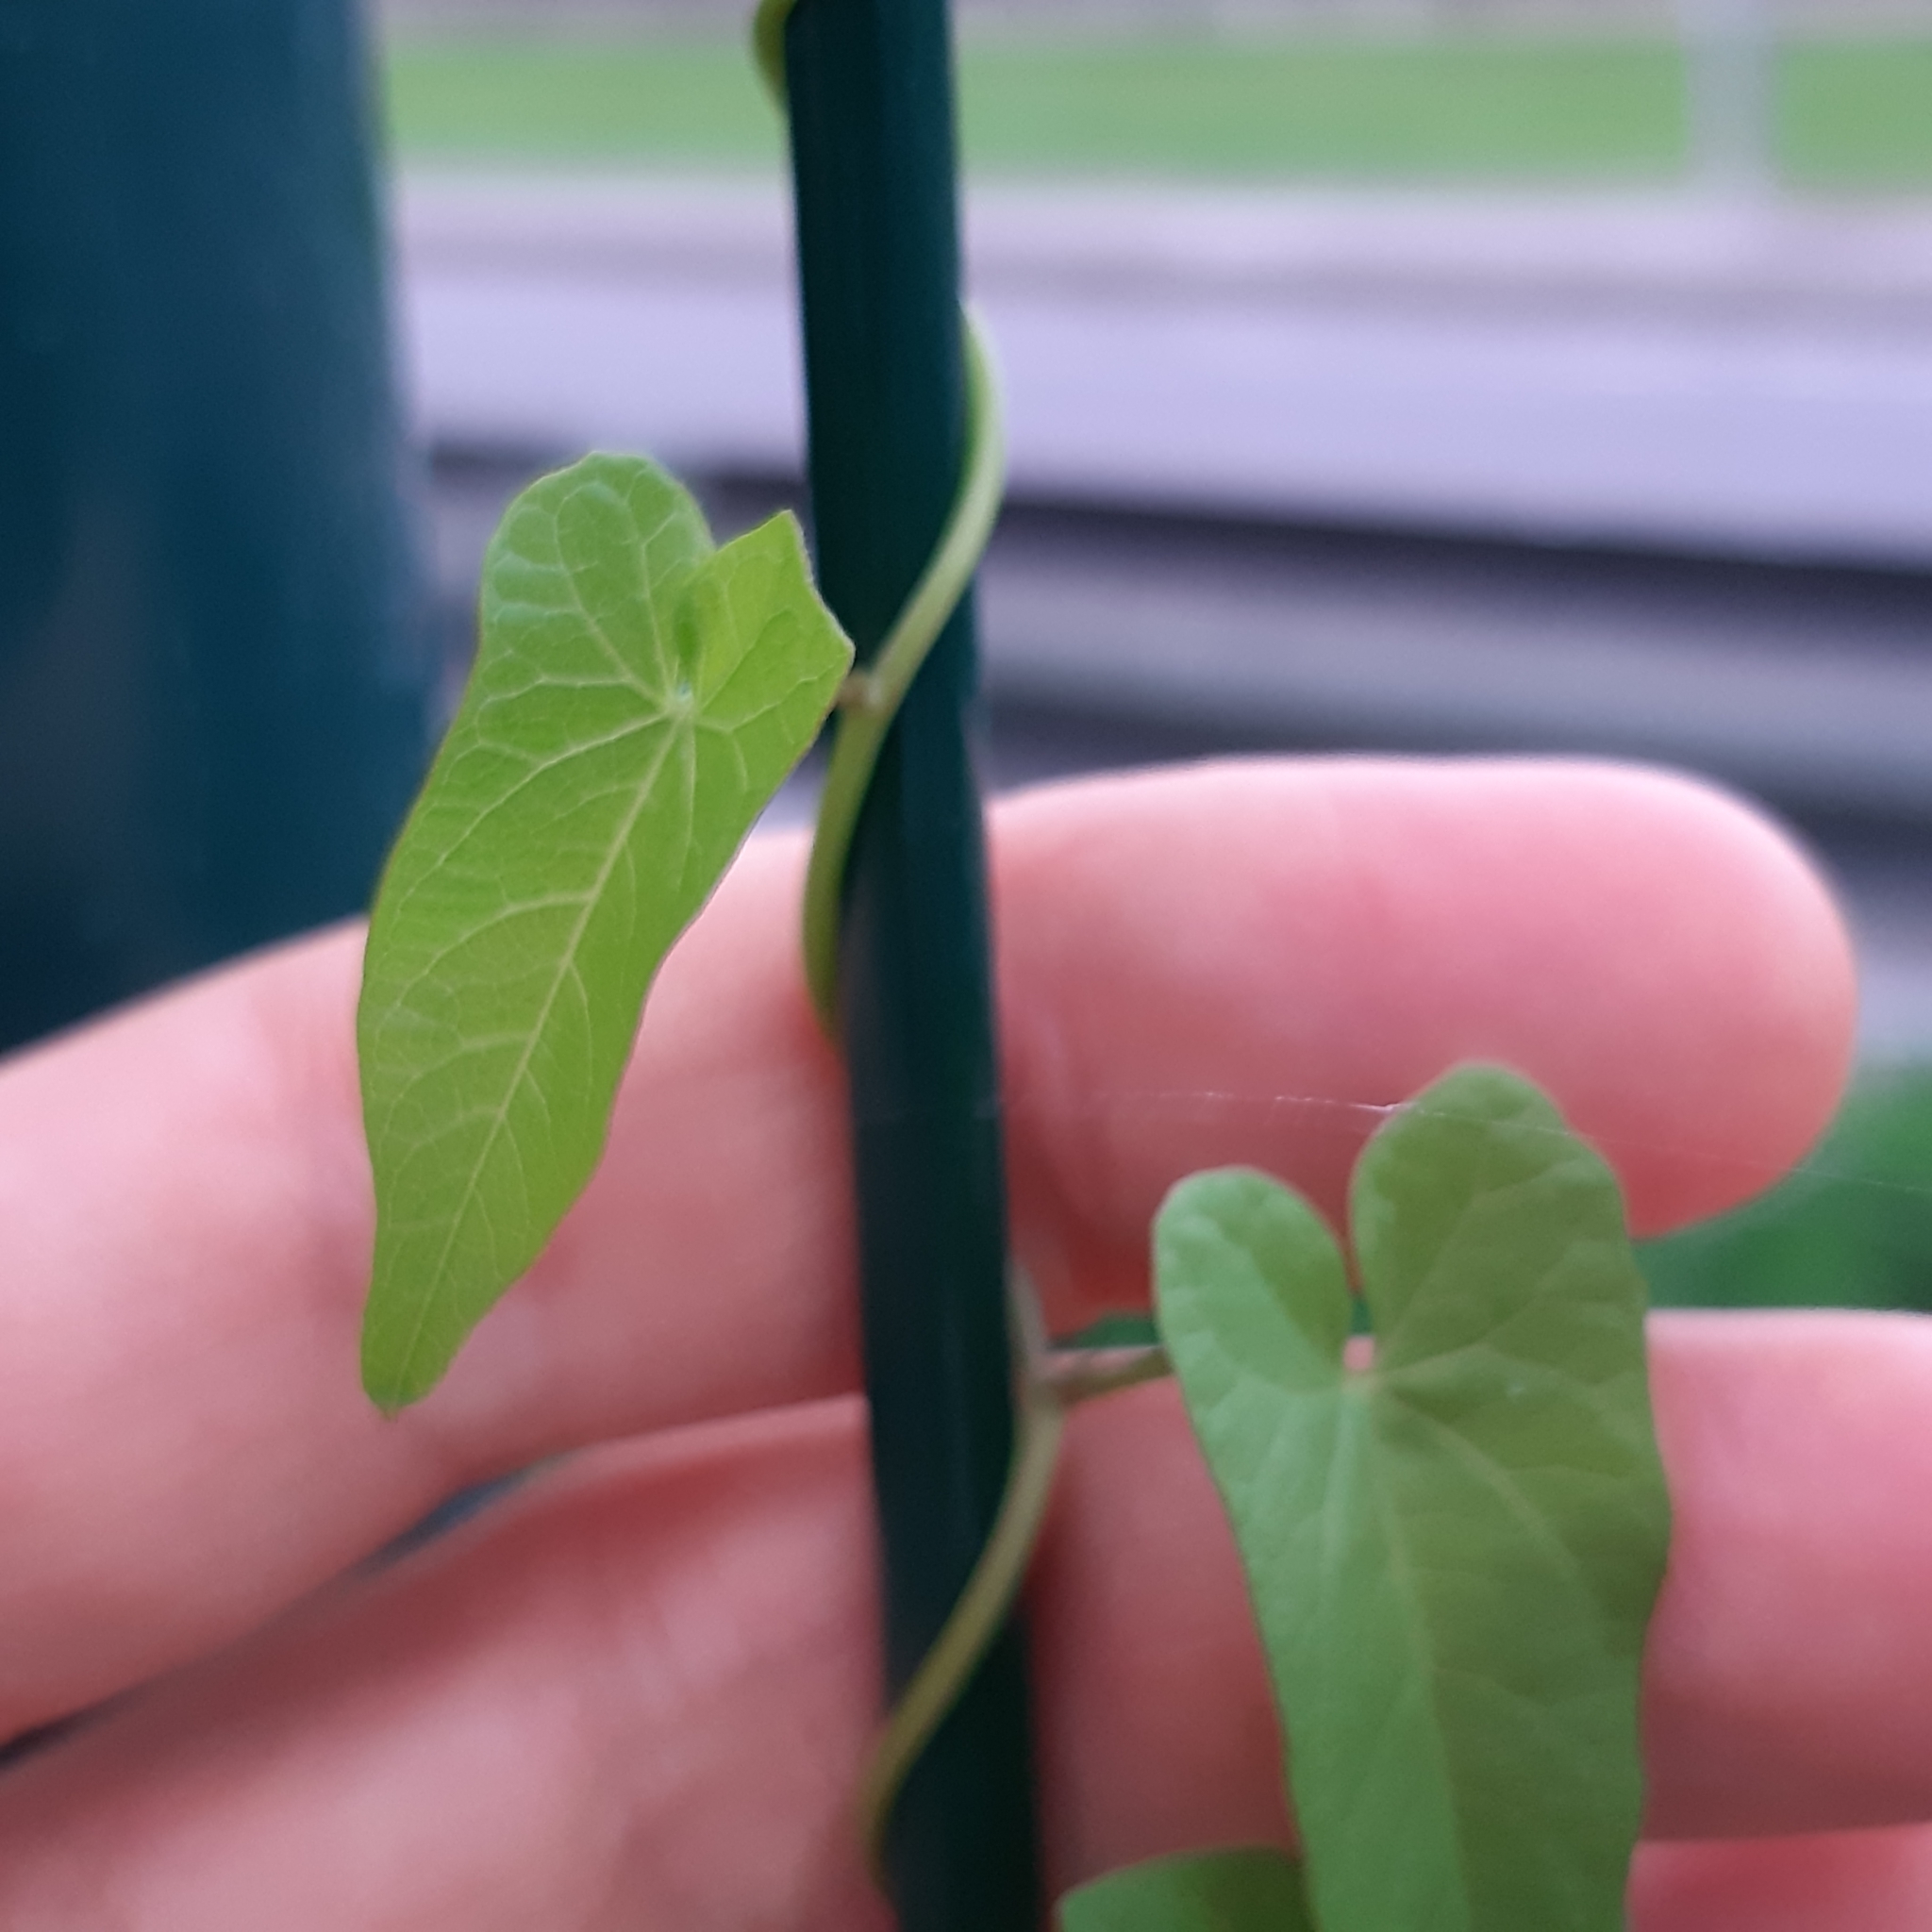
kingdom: Plantae
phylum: Tracheophyta
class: Magnoliopsida
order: Solanales
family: Convolvulaceae
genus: Calystegia
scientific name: Calystegia sepium
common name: Hedge bindweed
